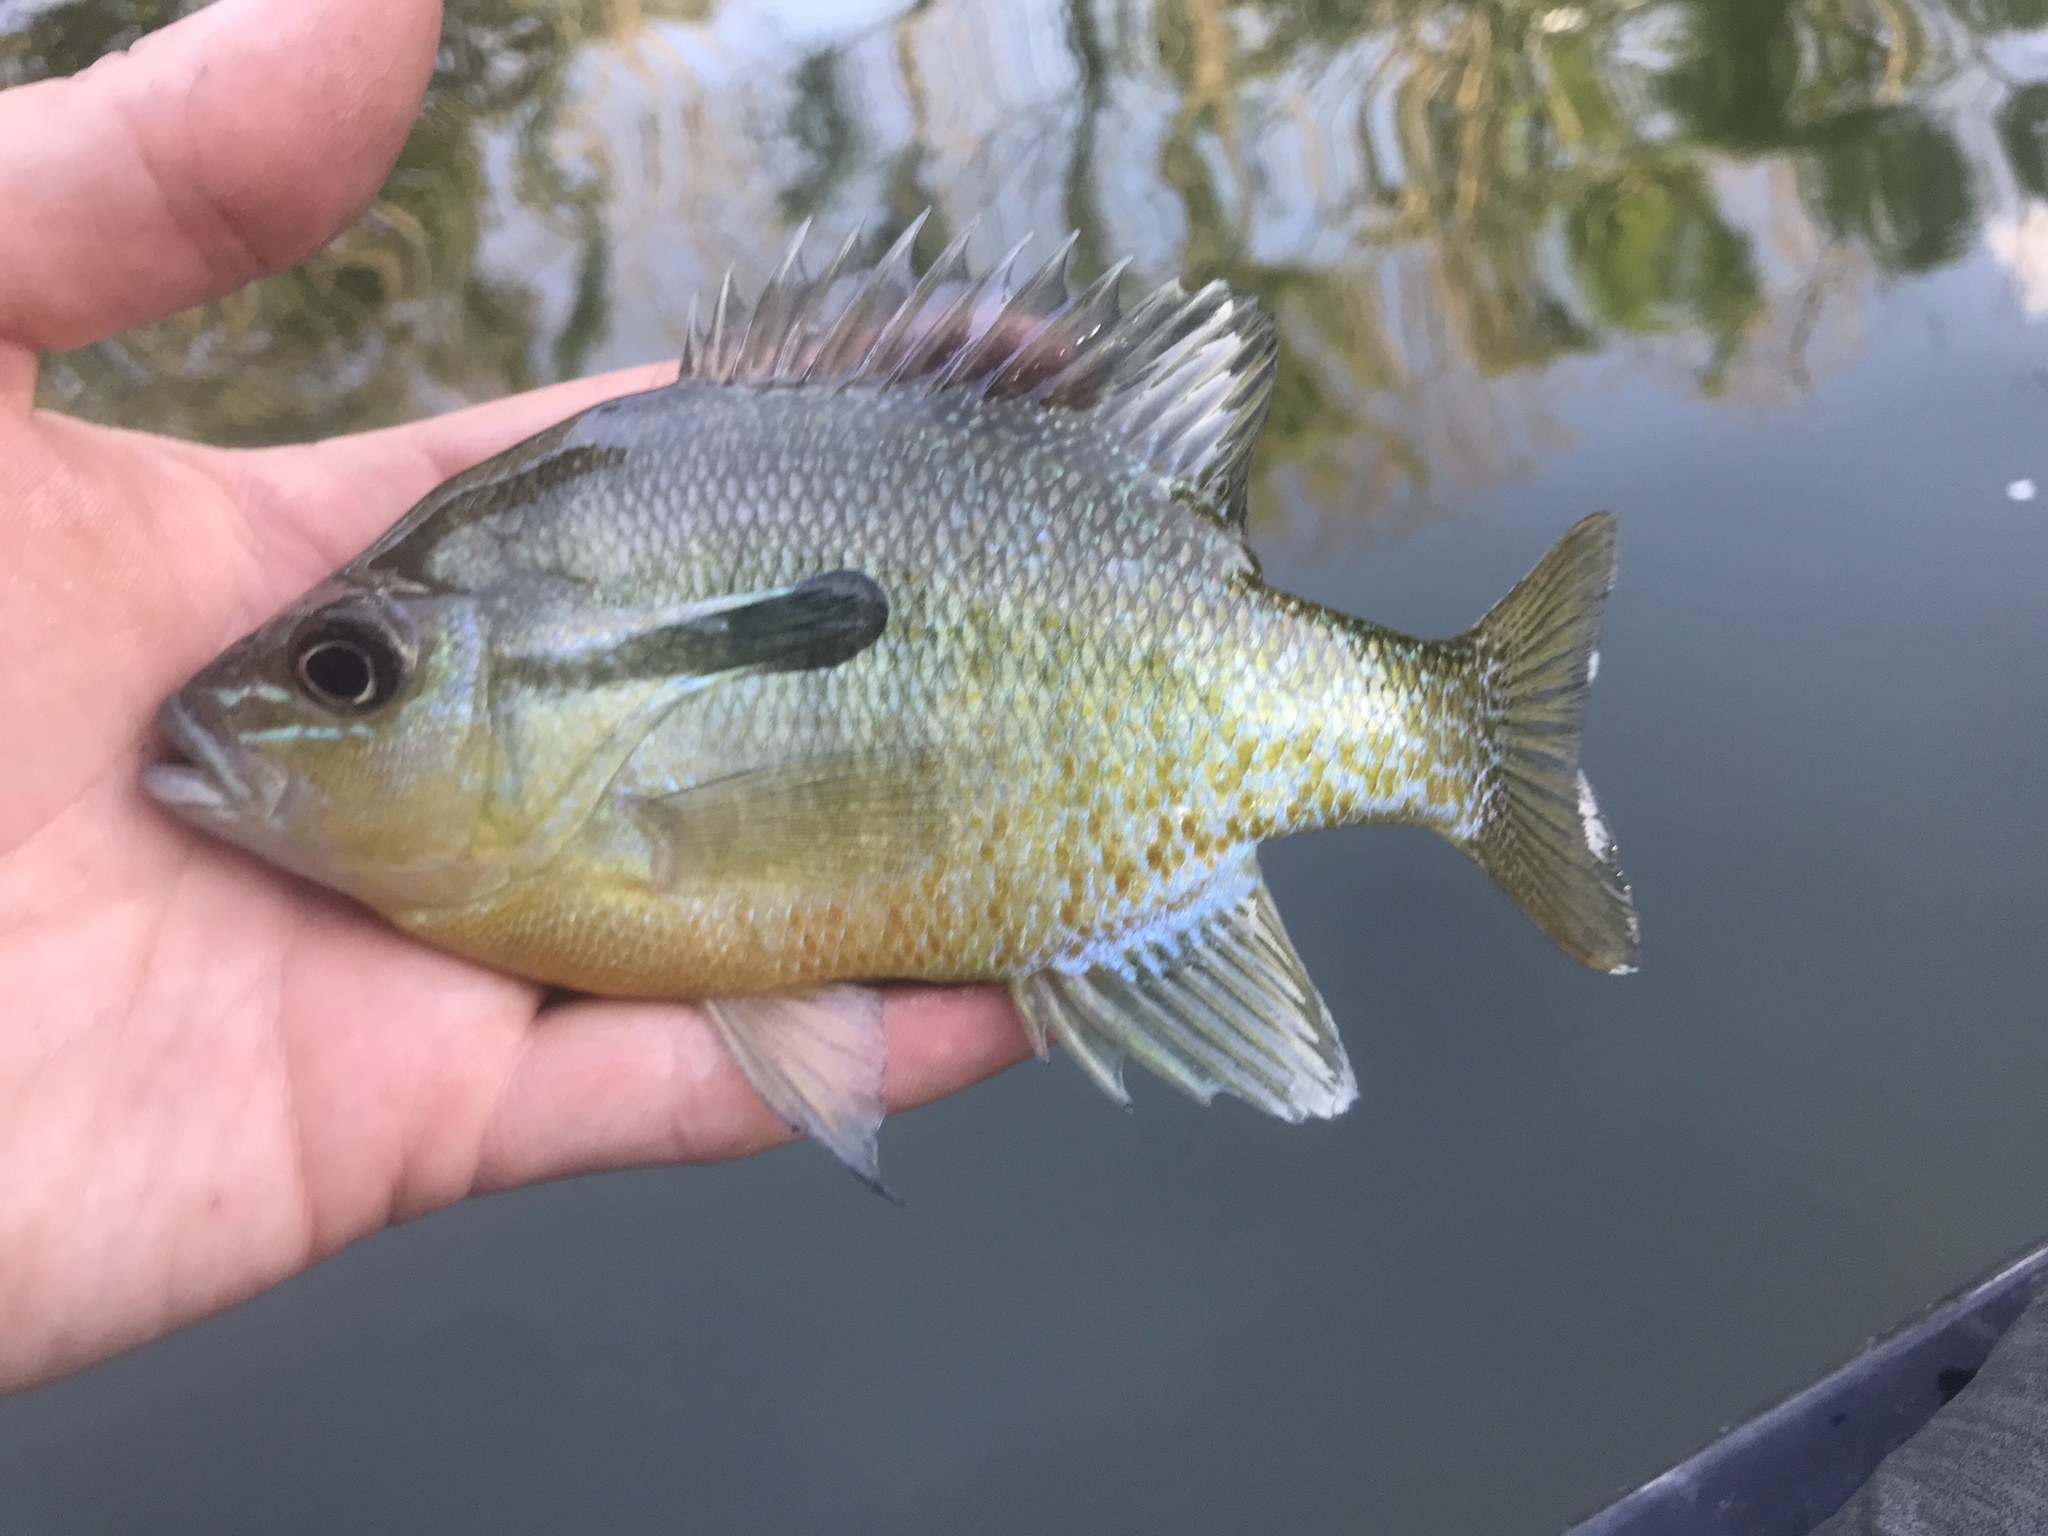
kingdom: Animalia
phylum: Chordata
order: Perciformes
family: Centrarchidae
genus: Lepomis
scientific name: Lepomis auritus
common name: Redbreast sunfish
